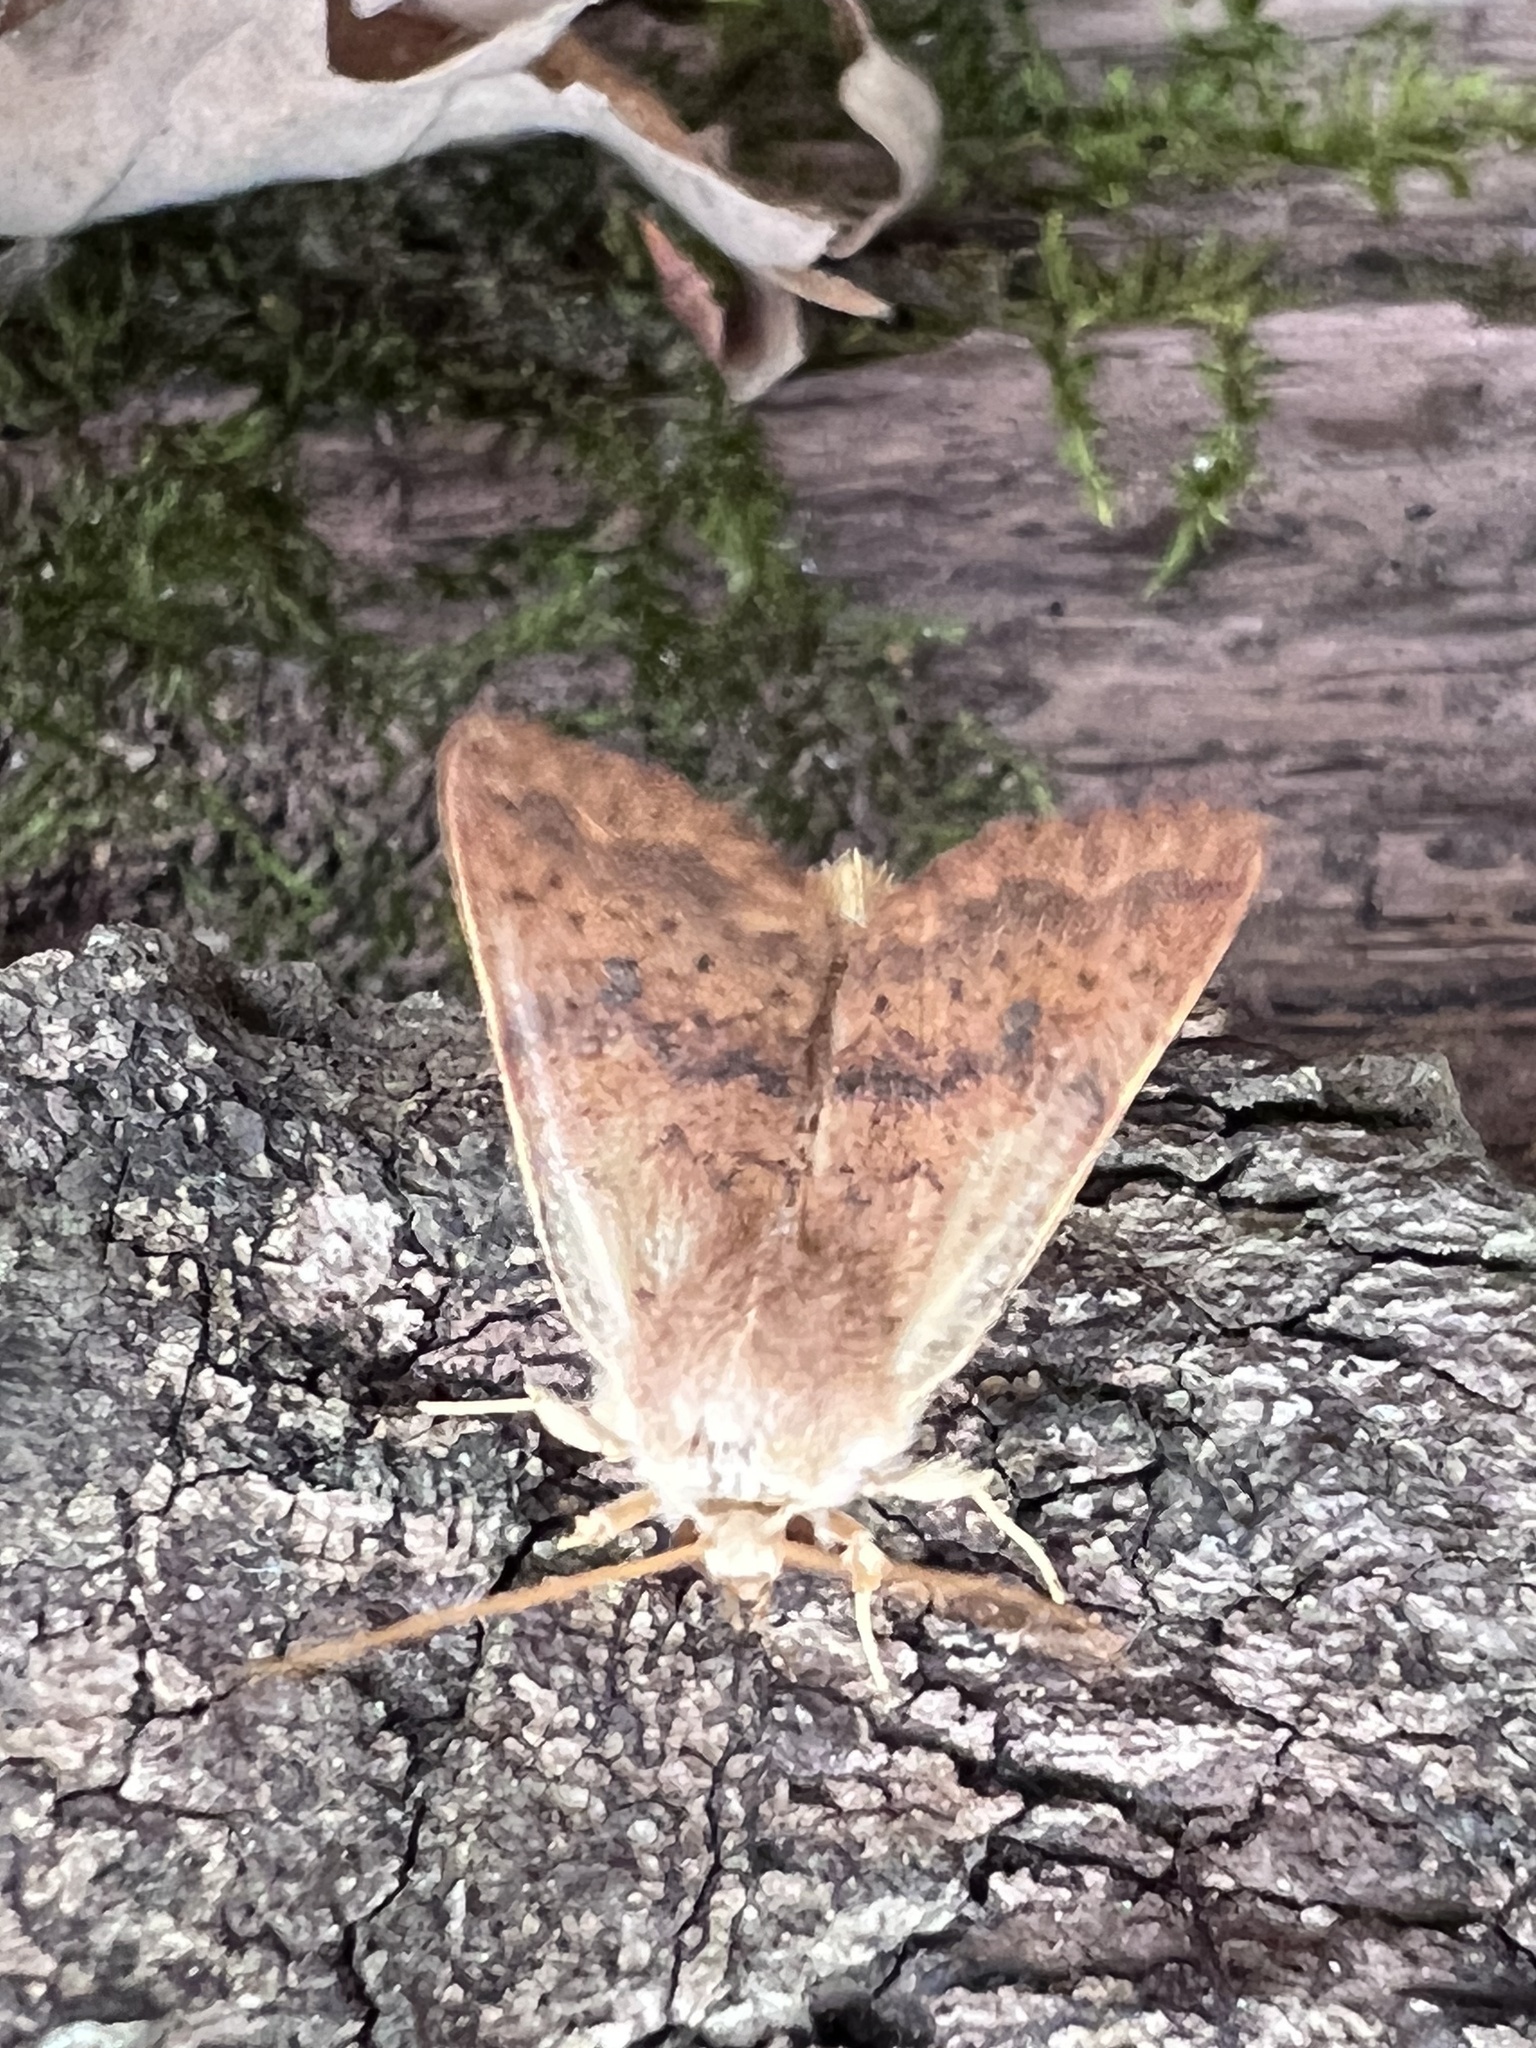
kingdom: Animalia
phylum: Arthropoda
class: Insecta
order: Lepidoptera
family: Noctuidae
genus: Agrochola
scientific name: Agrochola bicolorago
